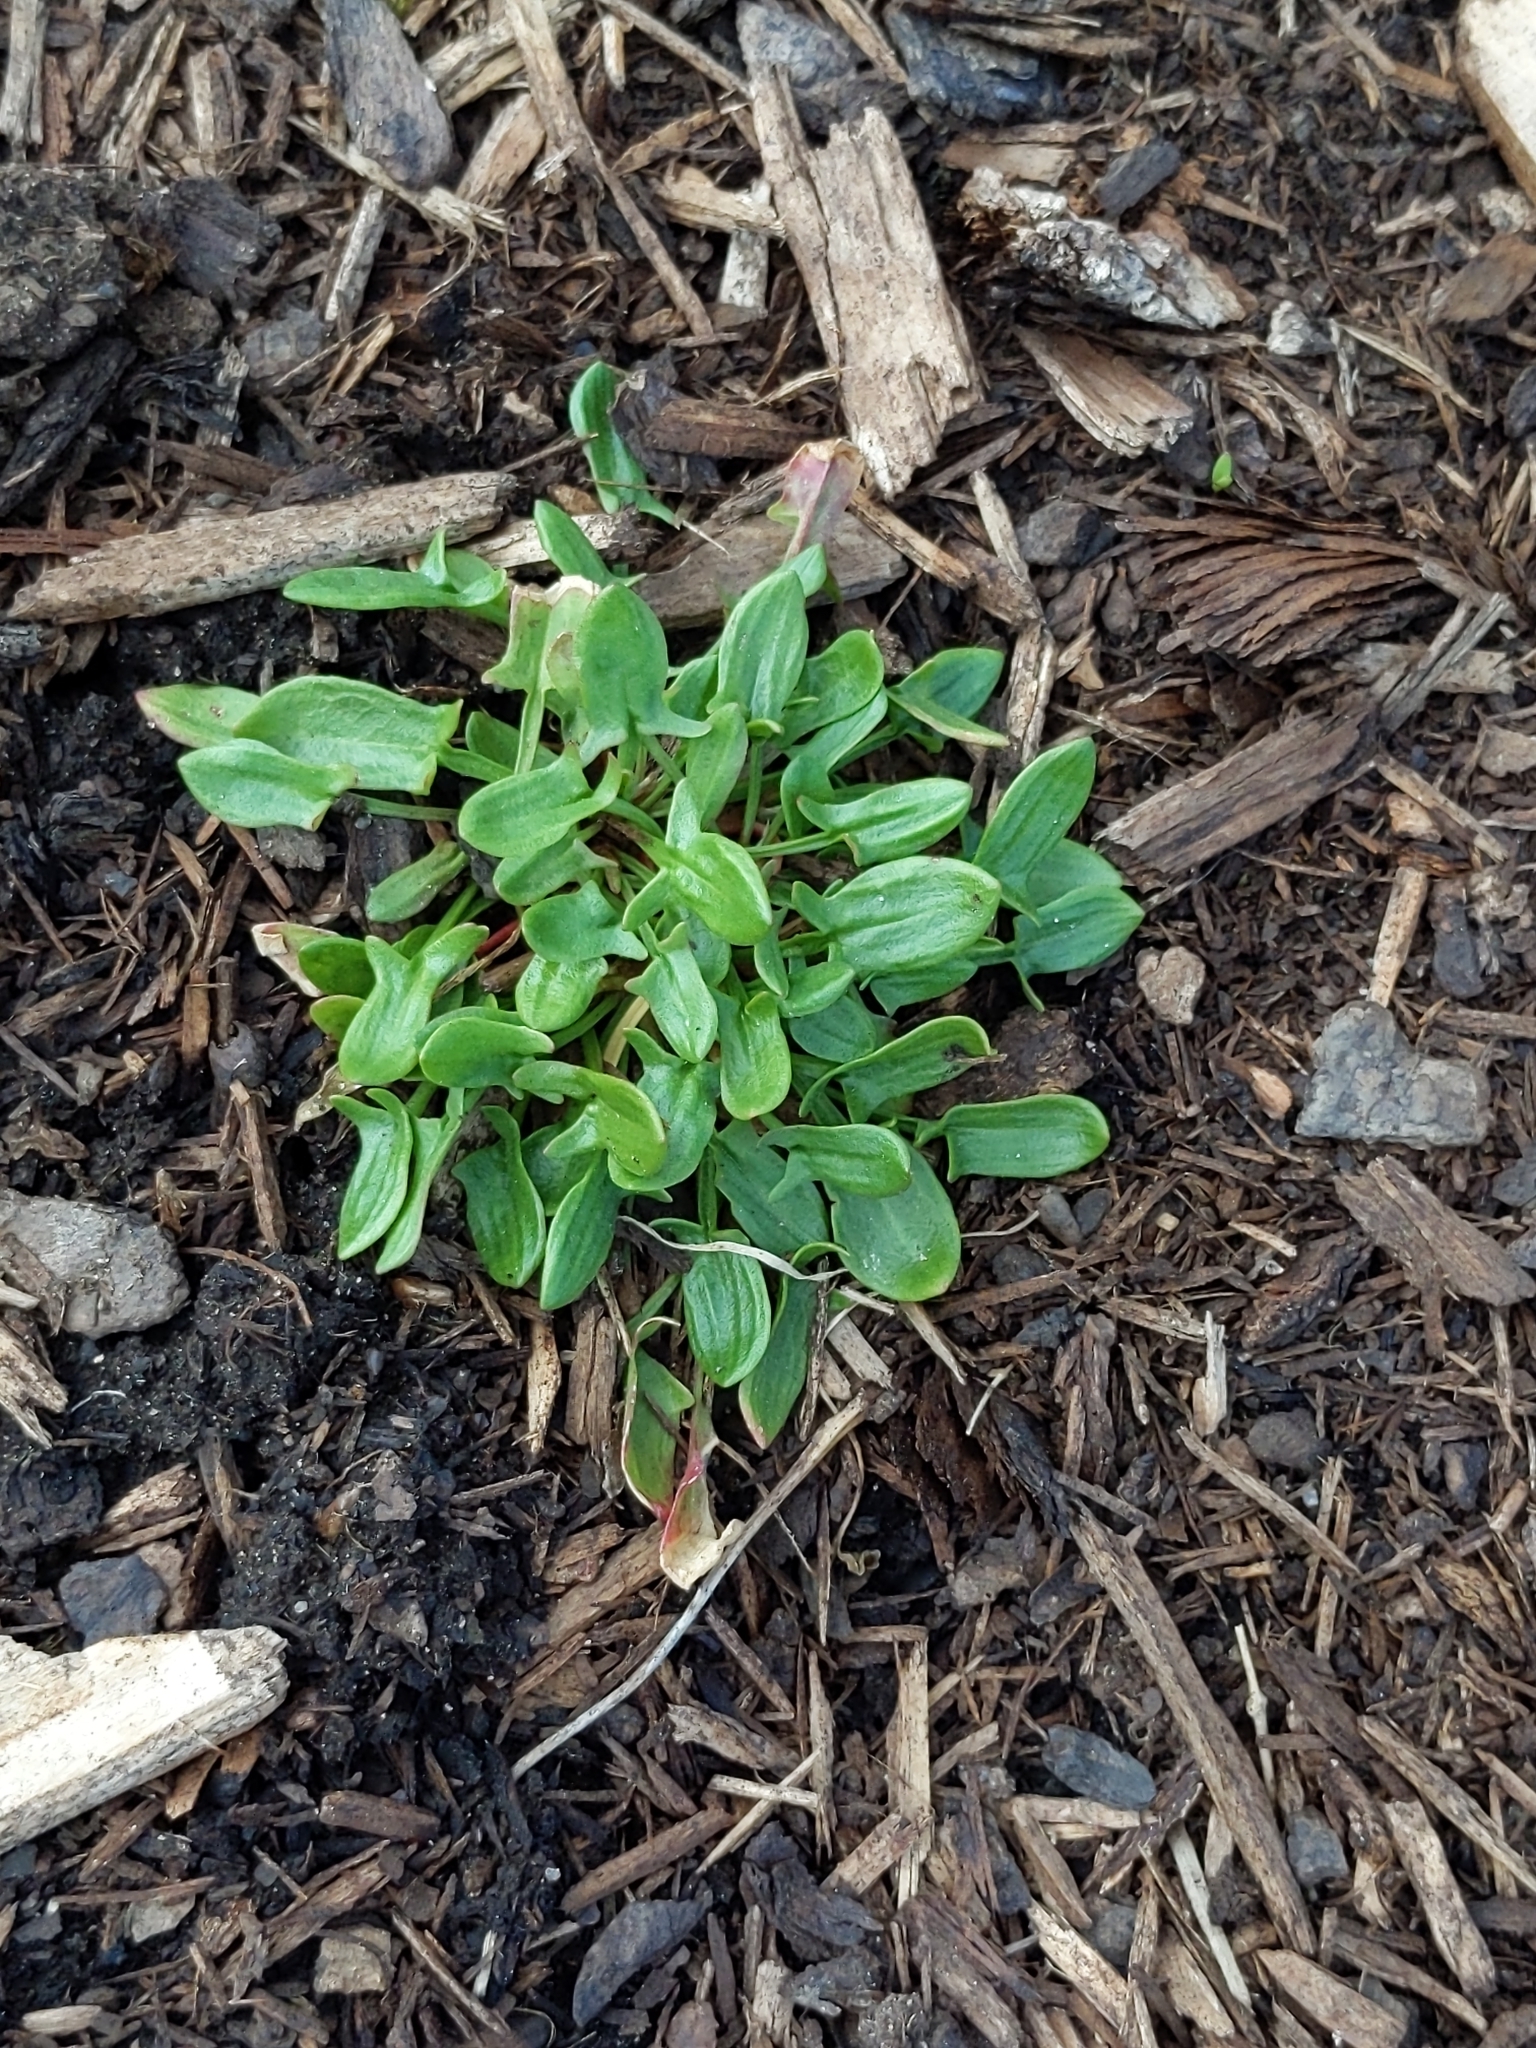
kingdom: Plantae
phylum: Tracheophyta
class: Magnoliopsida
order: Caryophyllales
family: Polygonaceae
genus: Rumex
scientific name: Rumex acetosella
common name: Common sheep sorrel
